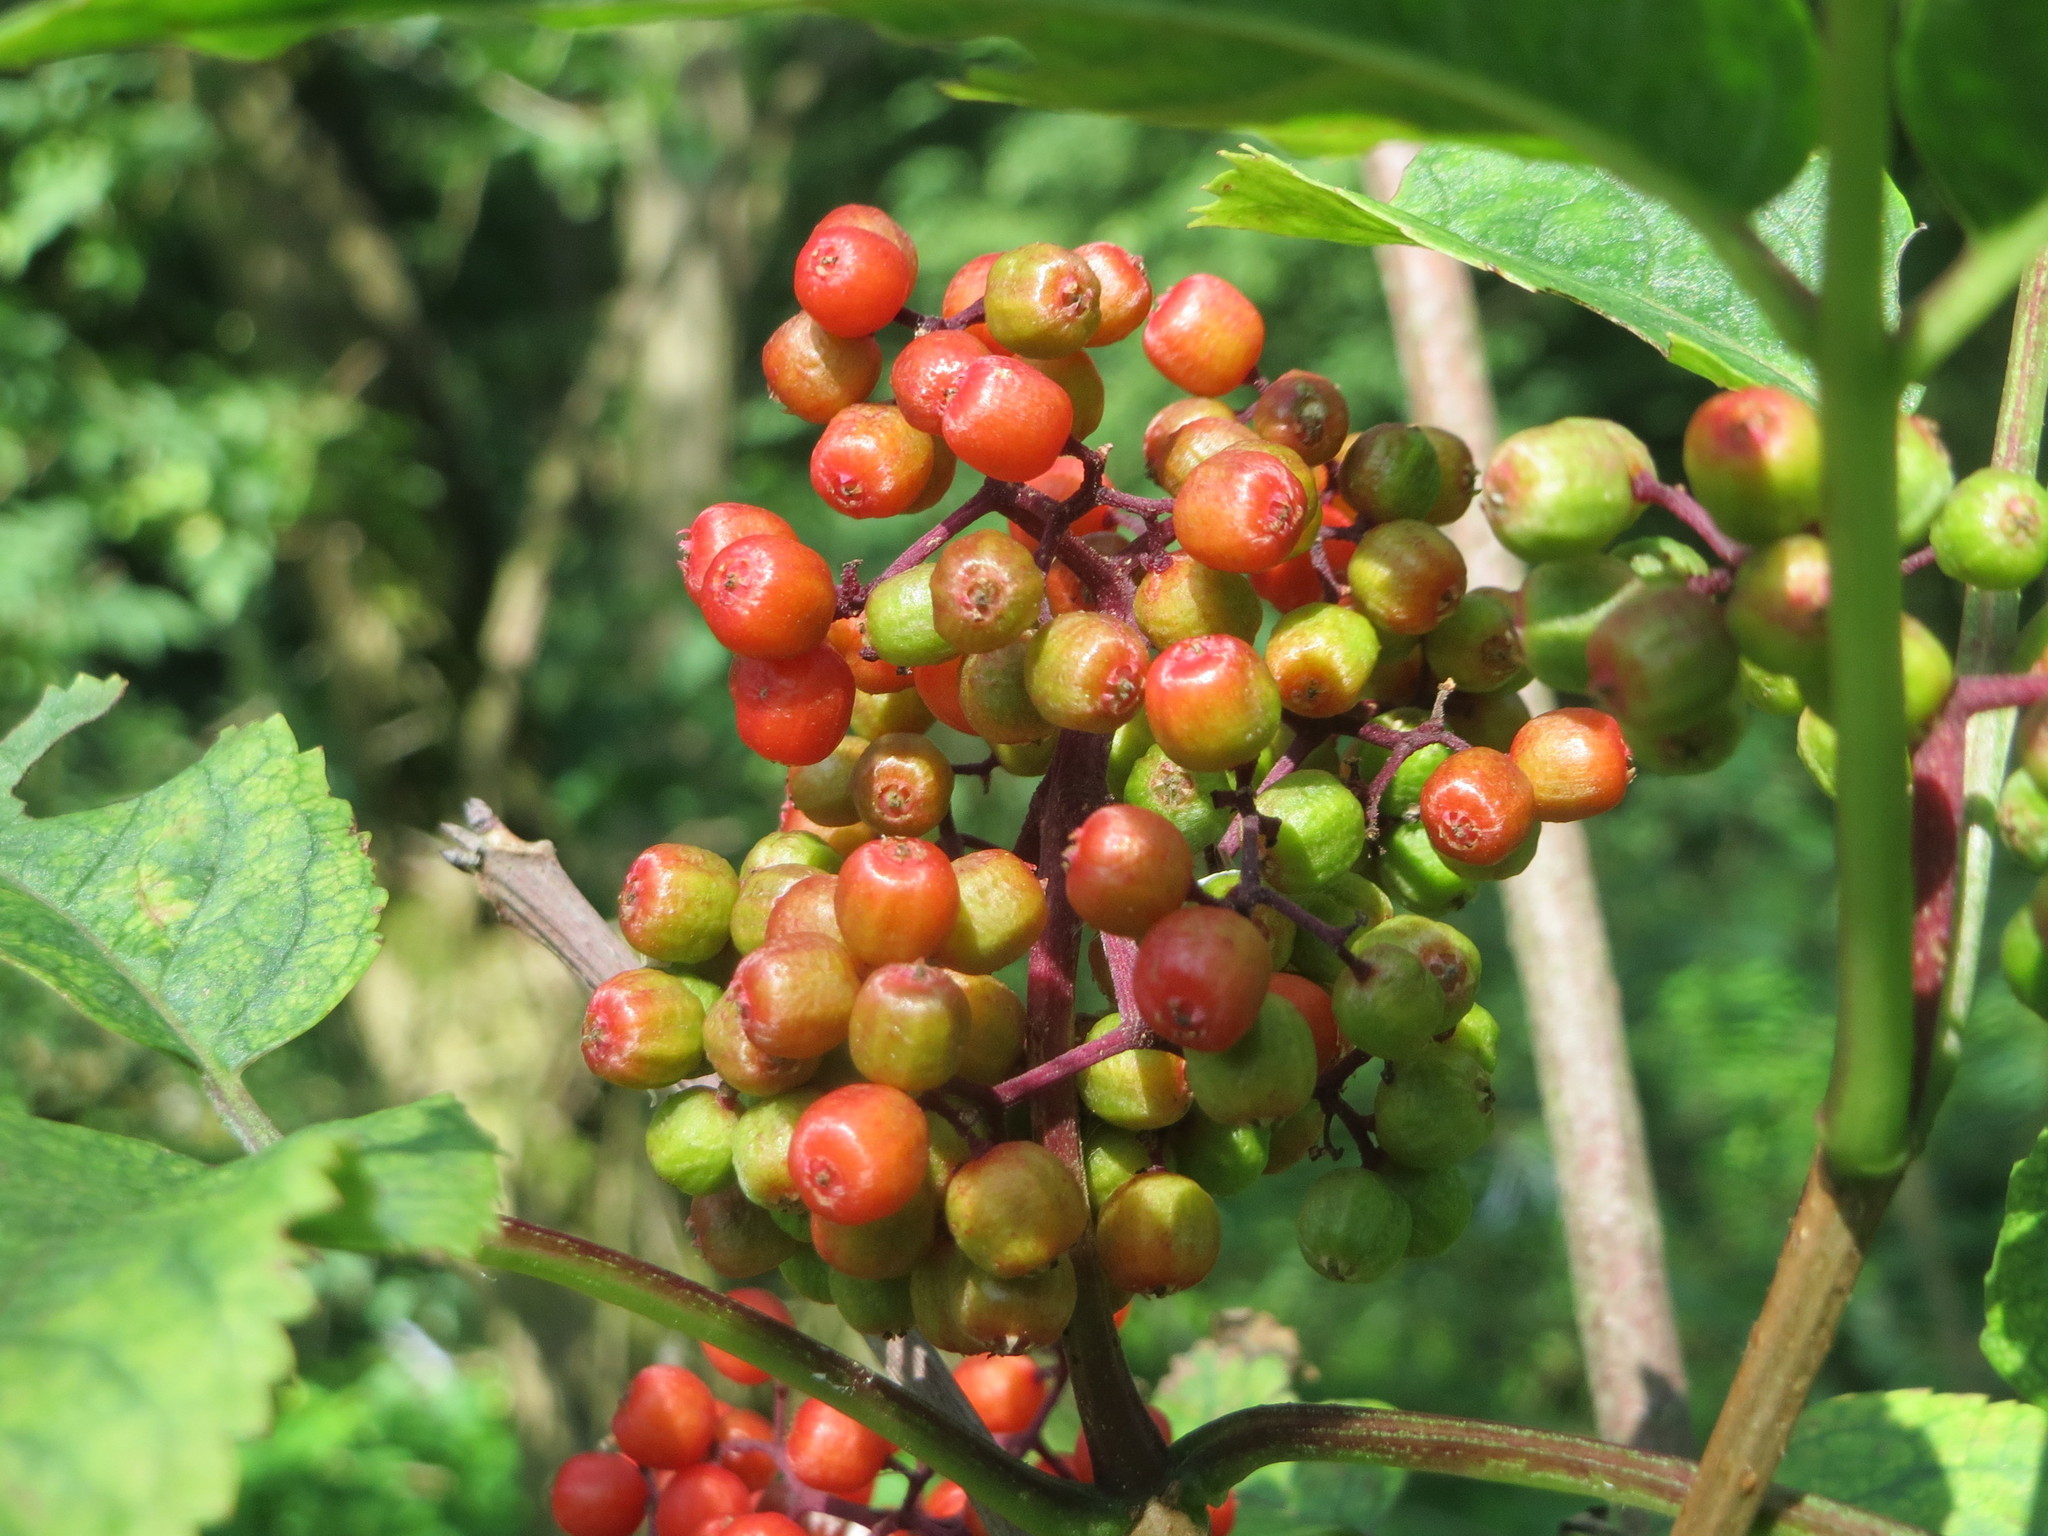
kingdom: Plantae
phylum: Tracheophyta
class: Magnoliopsida
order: Dipsacales
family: Viburnaceae
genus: Sambucus
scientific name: Sambucus racemosa
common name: Red-berried elder
